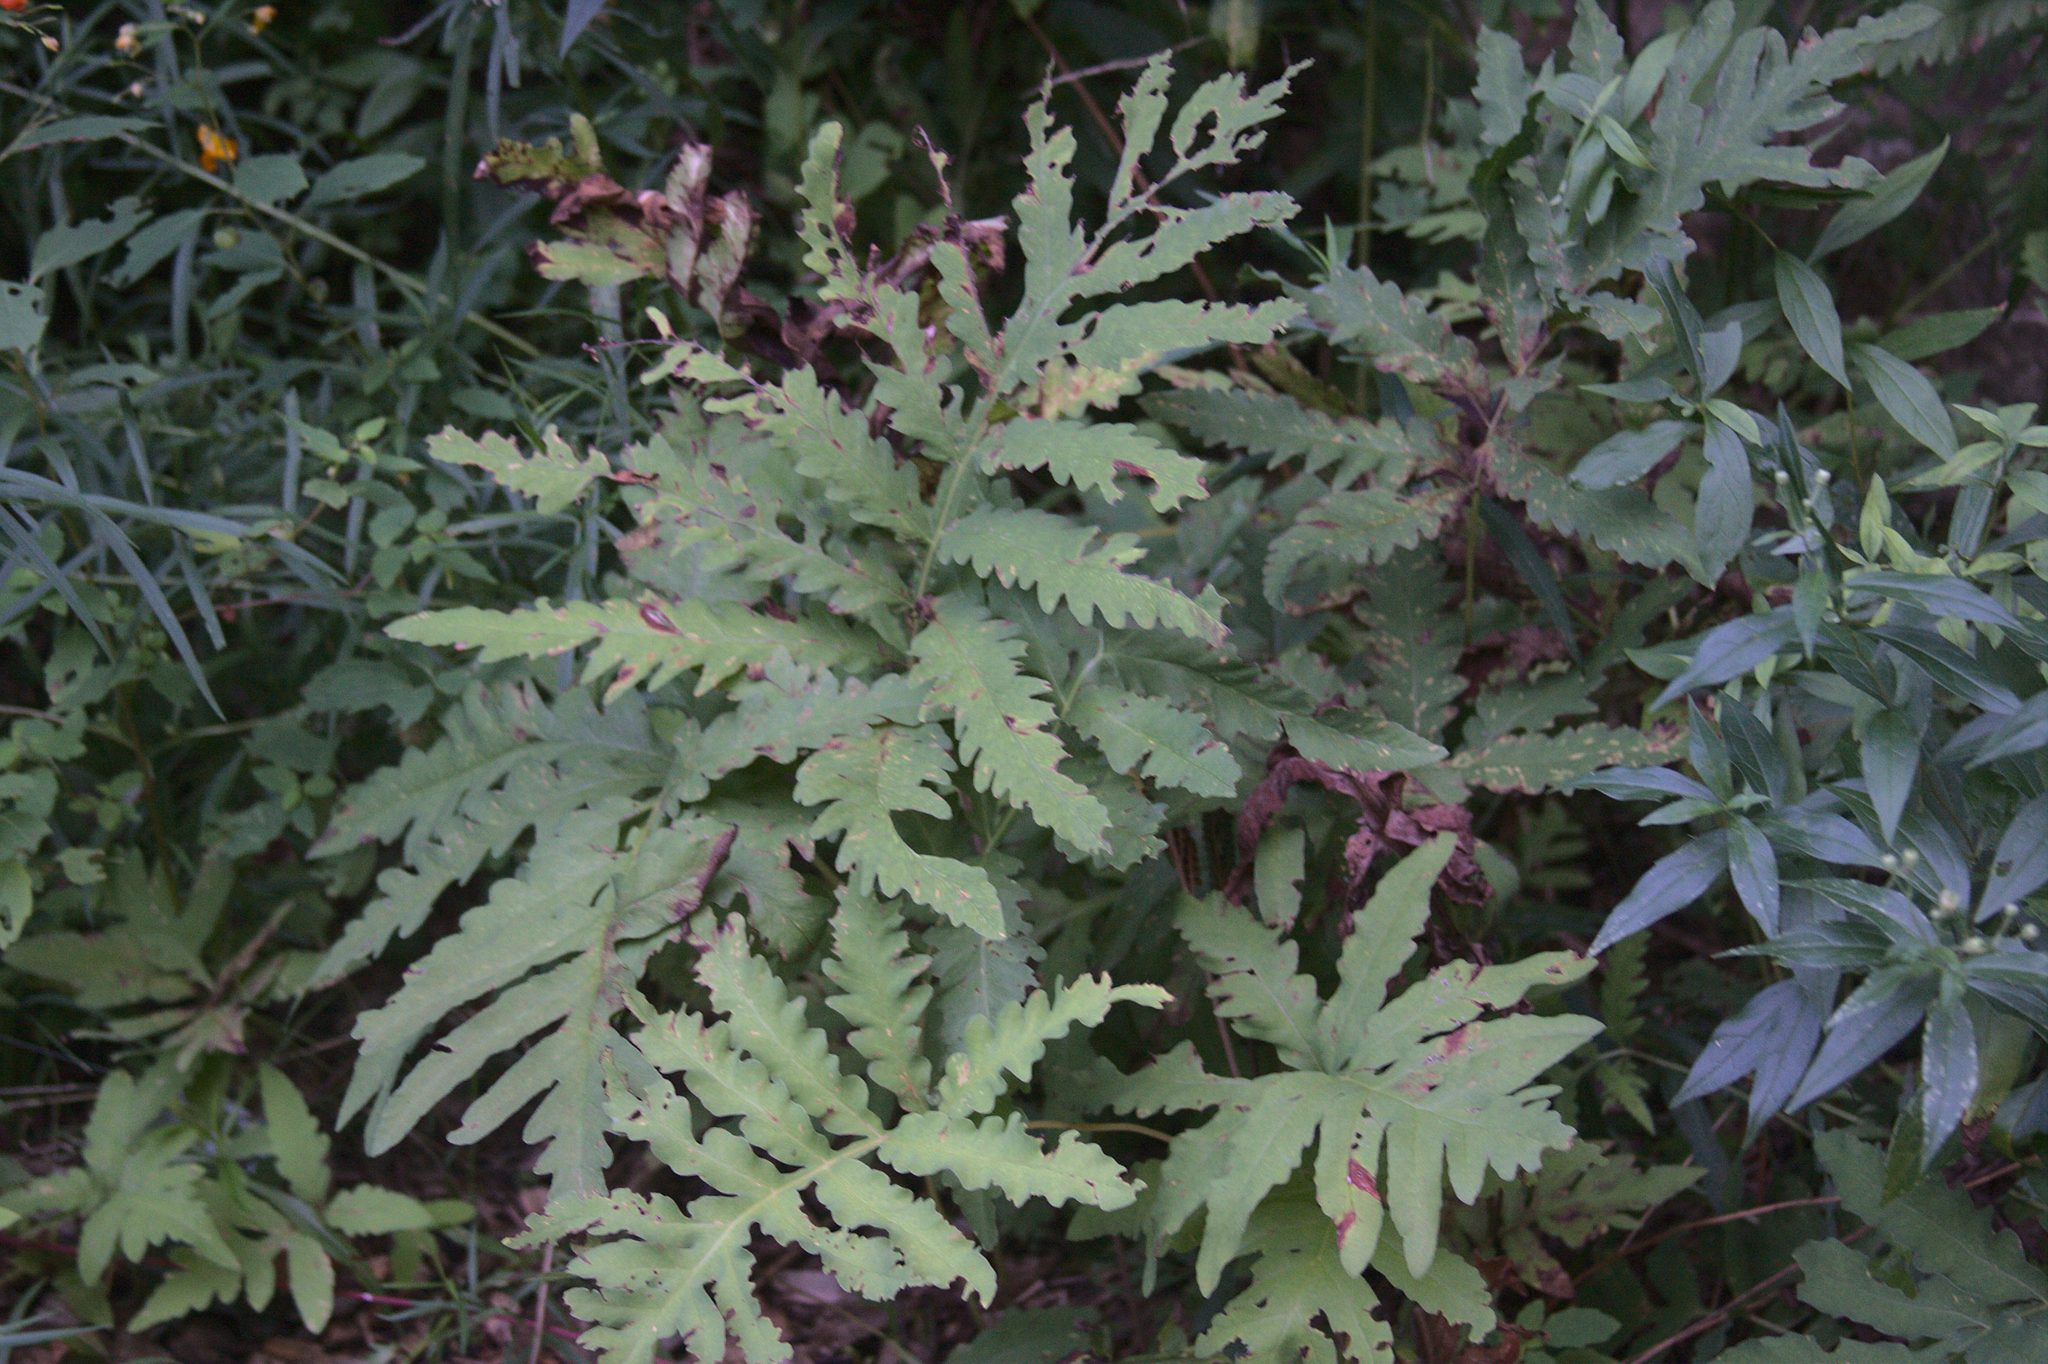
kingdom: Plantae
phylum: Tracheophyta
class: Polypodiopsida
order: Polypodiales
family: Onocleaceae
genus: Onoclea
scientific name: Onoclea sensibilis
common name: Sensitive fern
